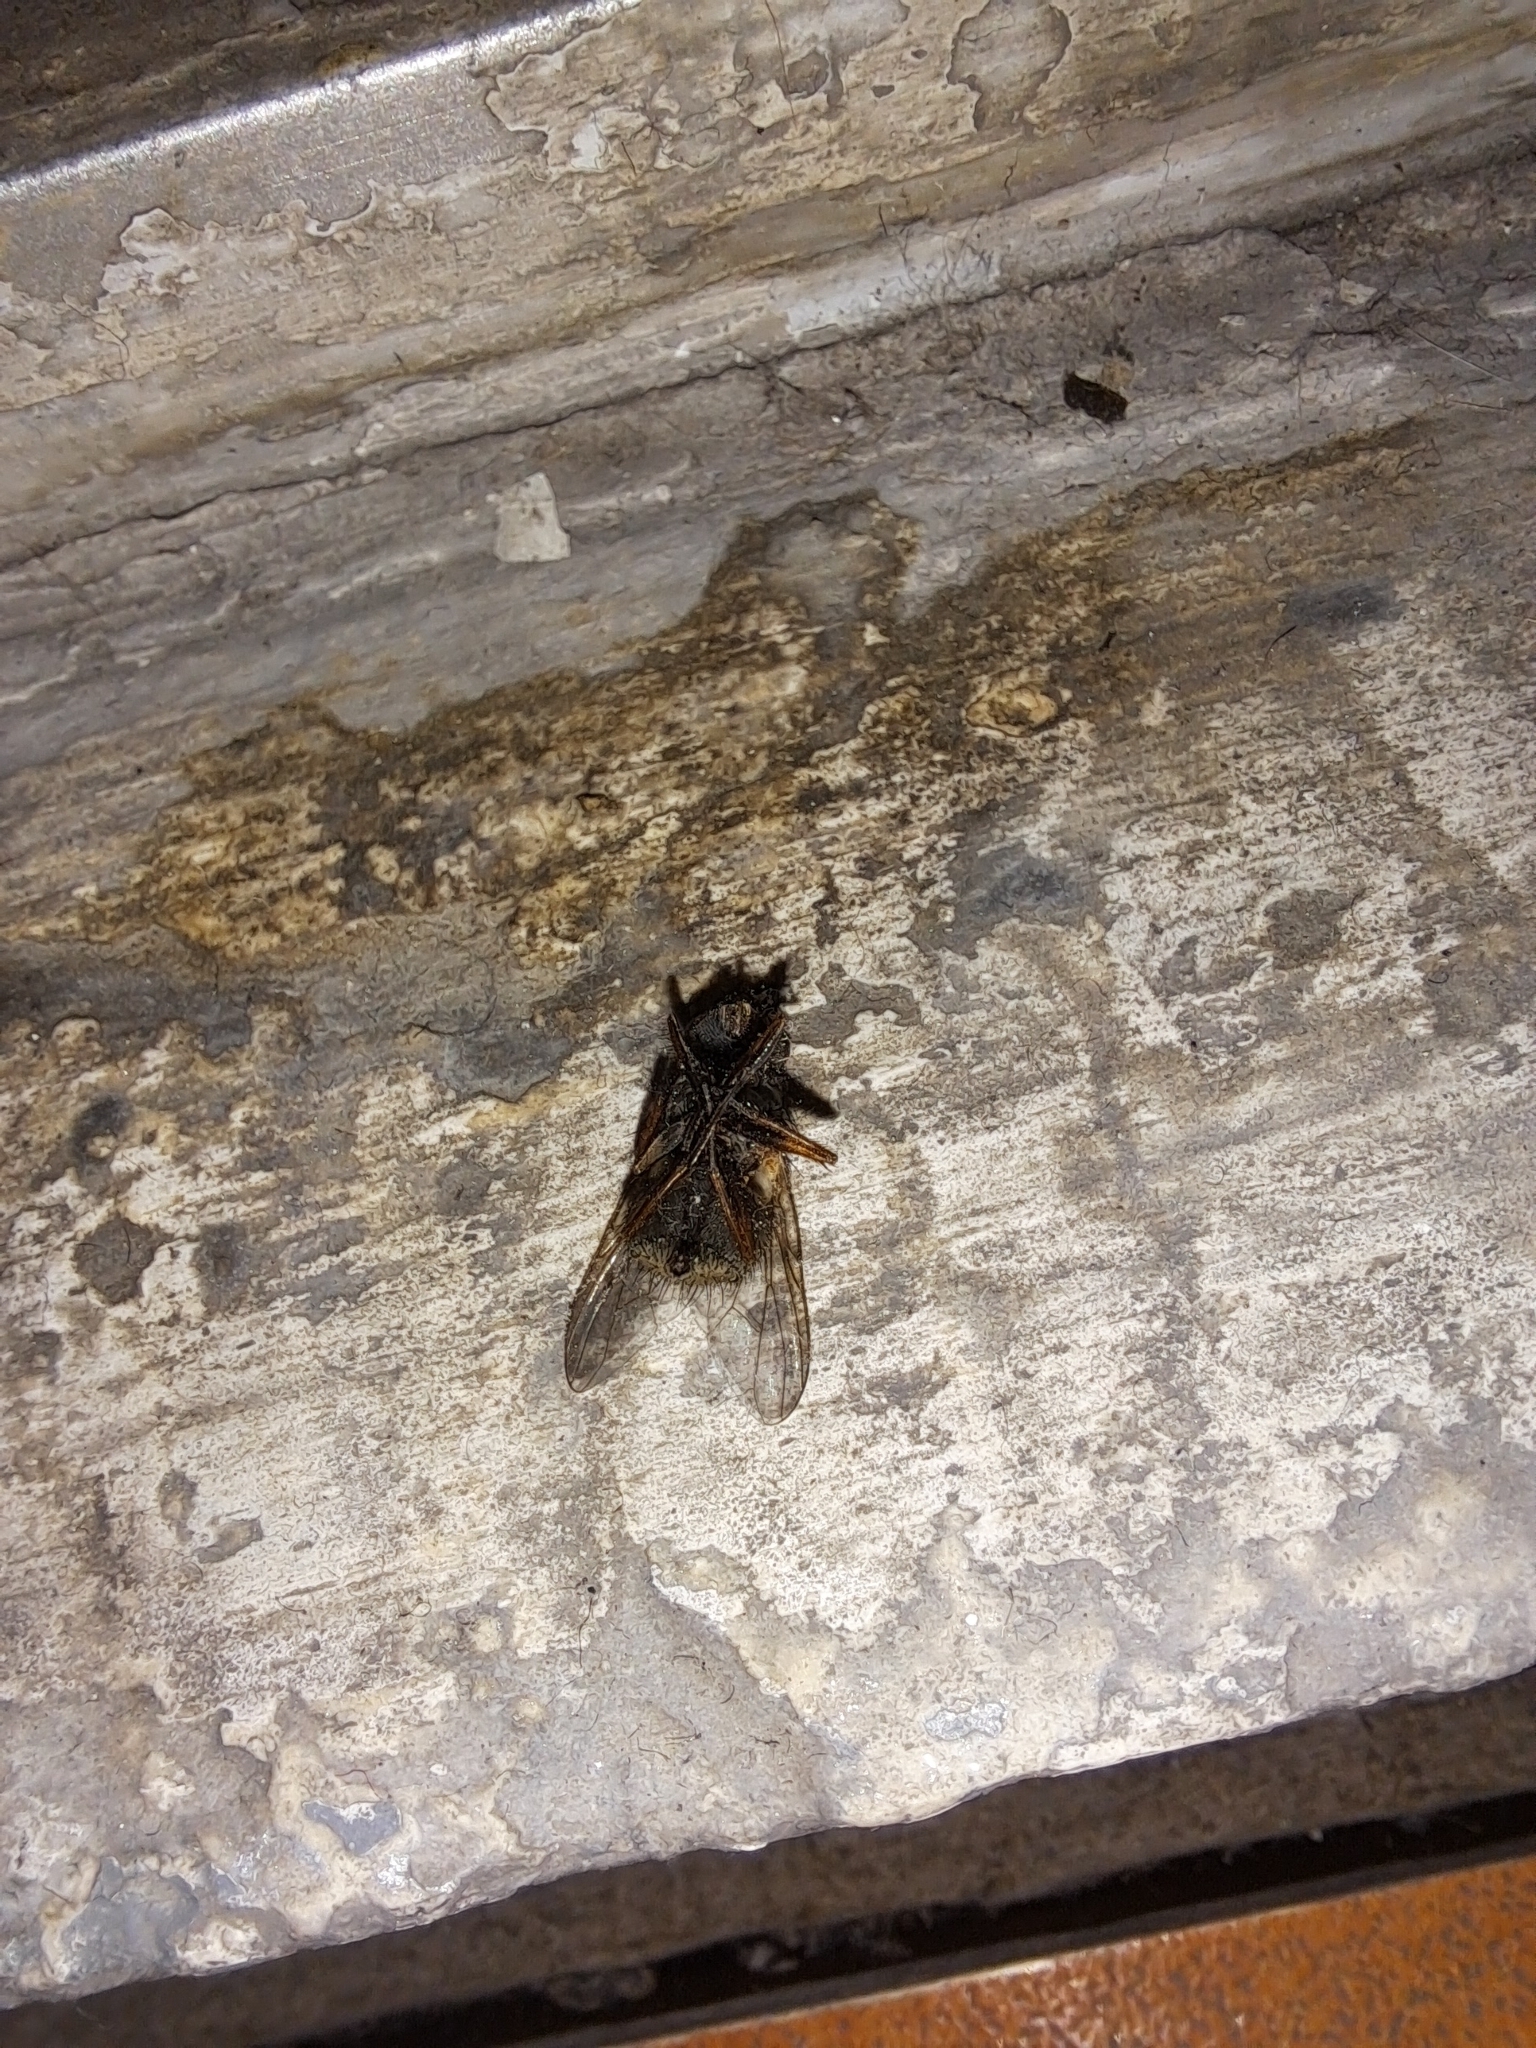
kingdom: Animalia
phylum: Arthropoda
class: Insecta
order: Diptera
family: Muscidae
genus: Muscina
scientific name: Muscina stabulans
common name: False stable fly
